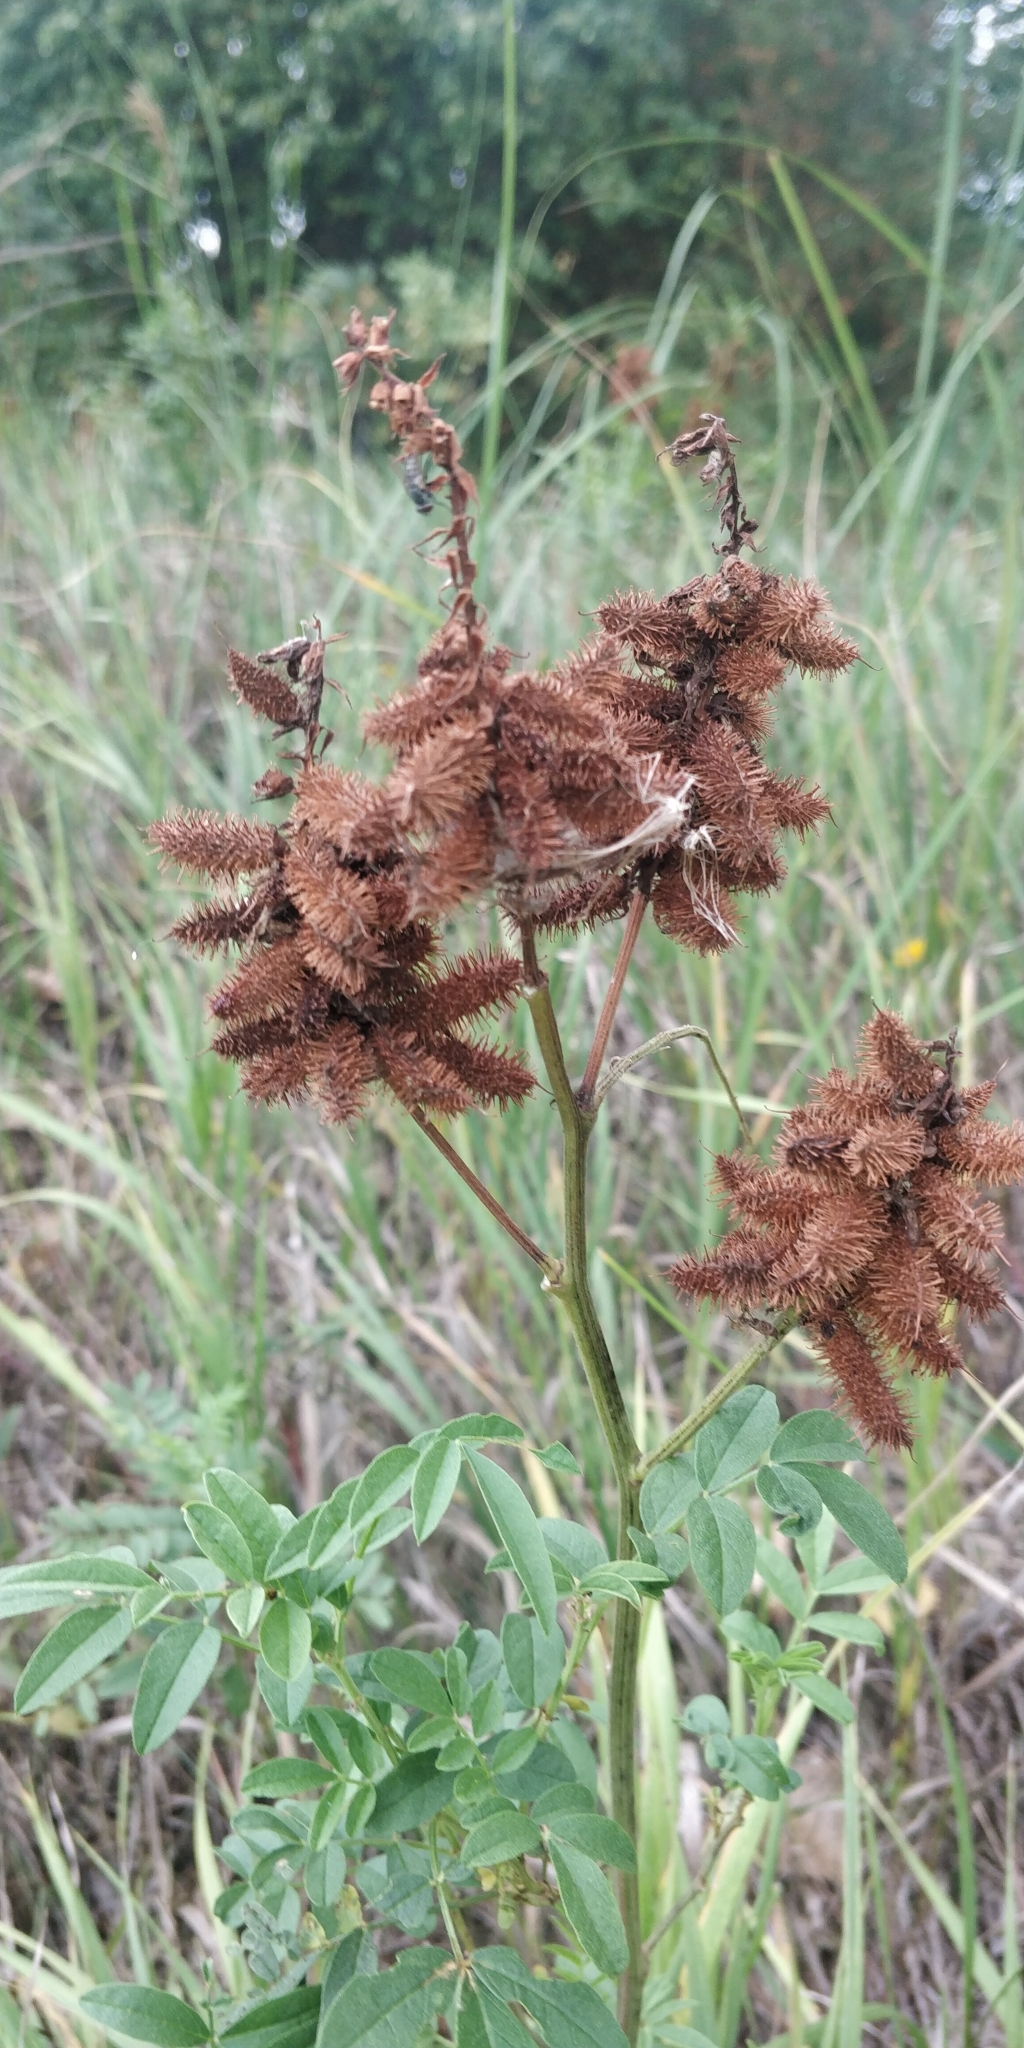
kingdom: Plantae
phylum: Tracheophyta
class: Magnoliopsida
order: Fabales
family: Fabaceae
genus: Glycyrrhiza
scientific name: Glycyrrhiza lepidota
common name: American liquorice
